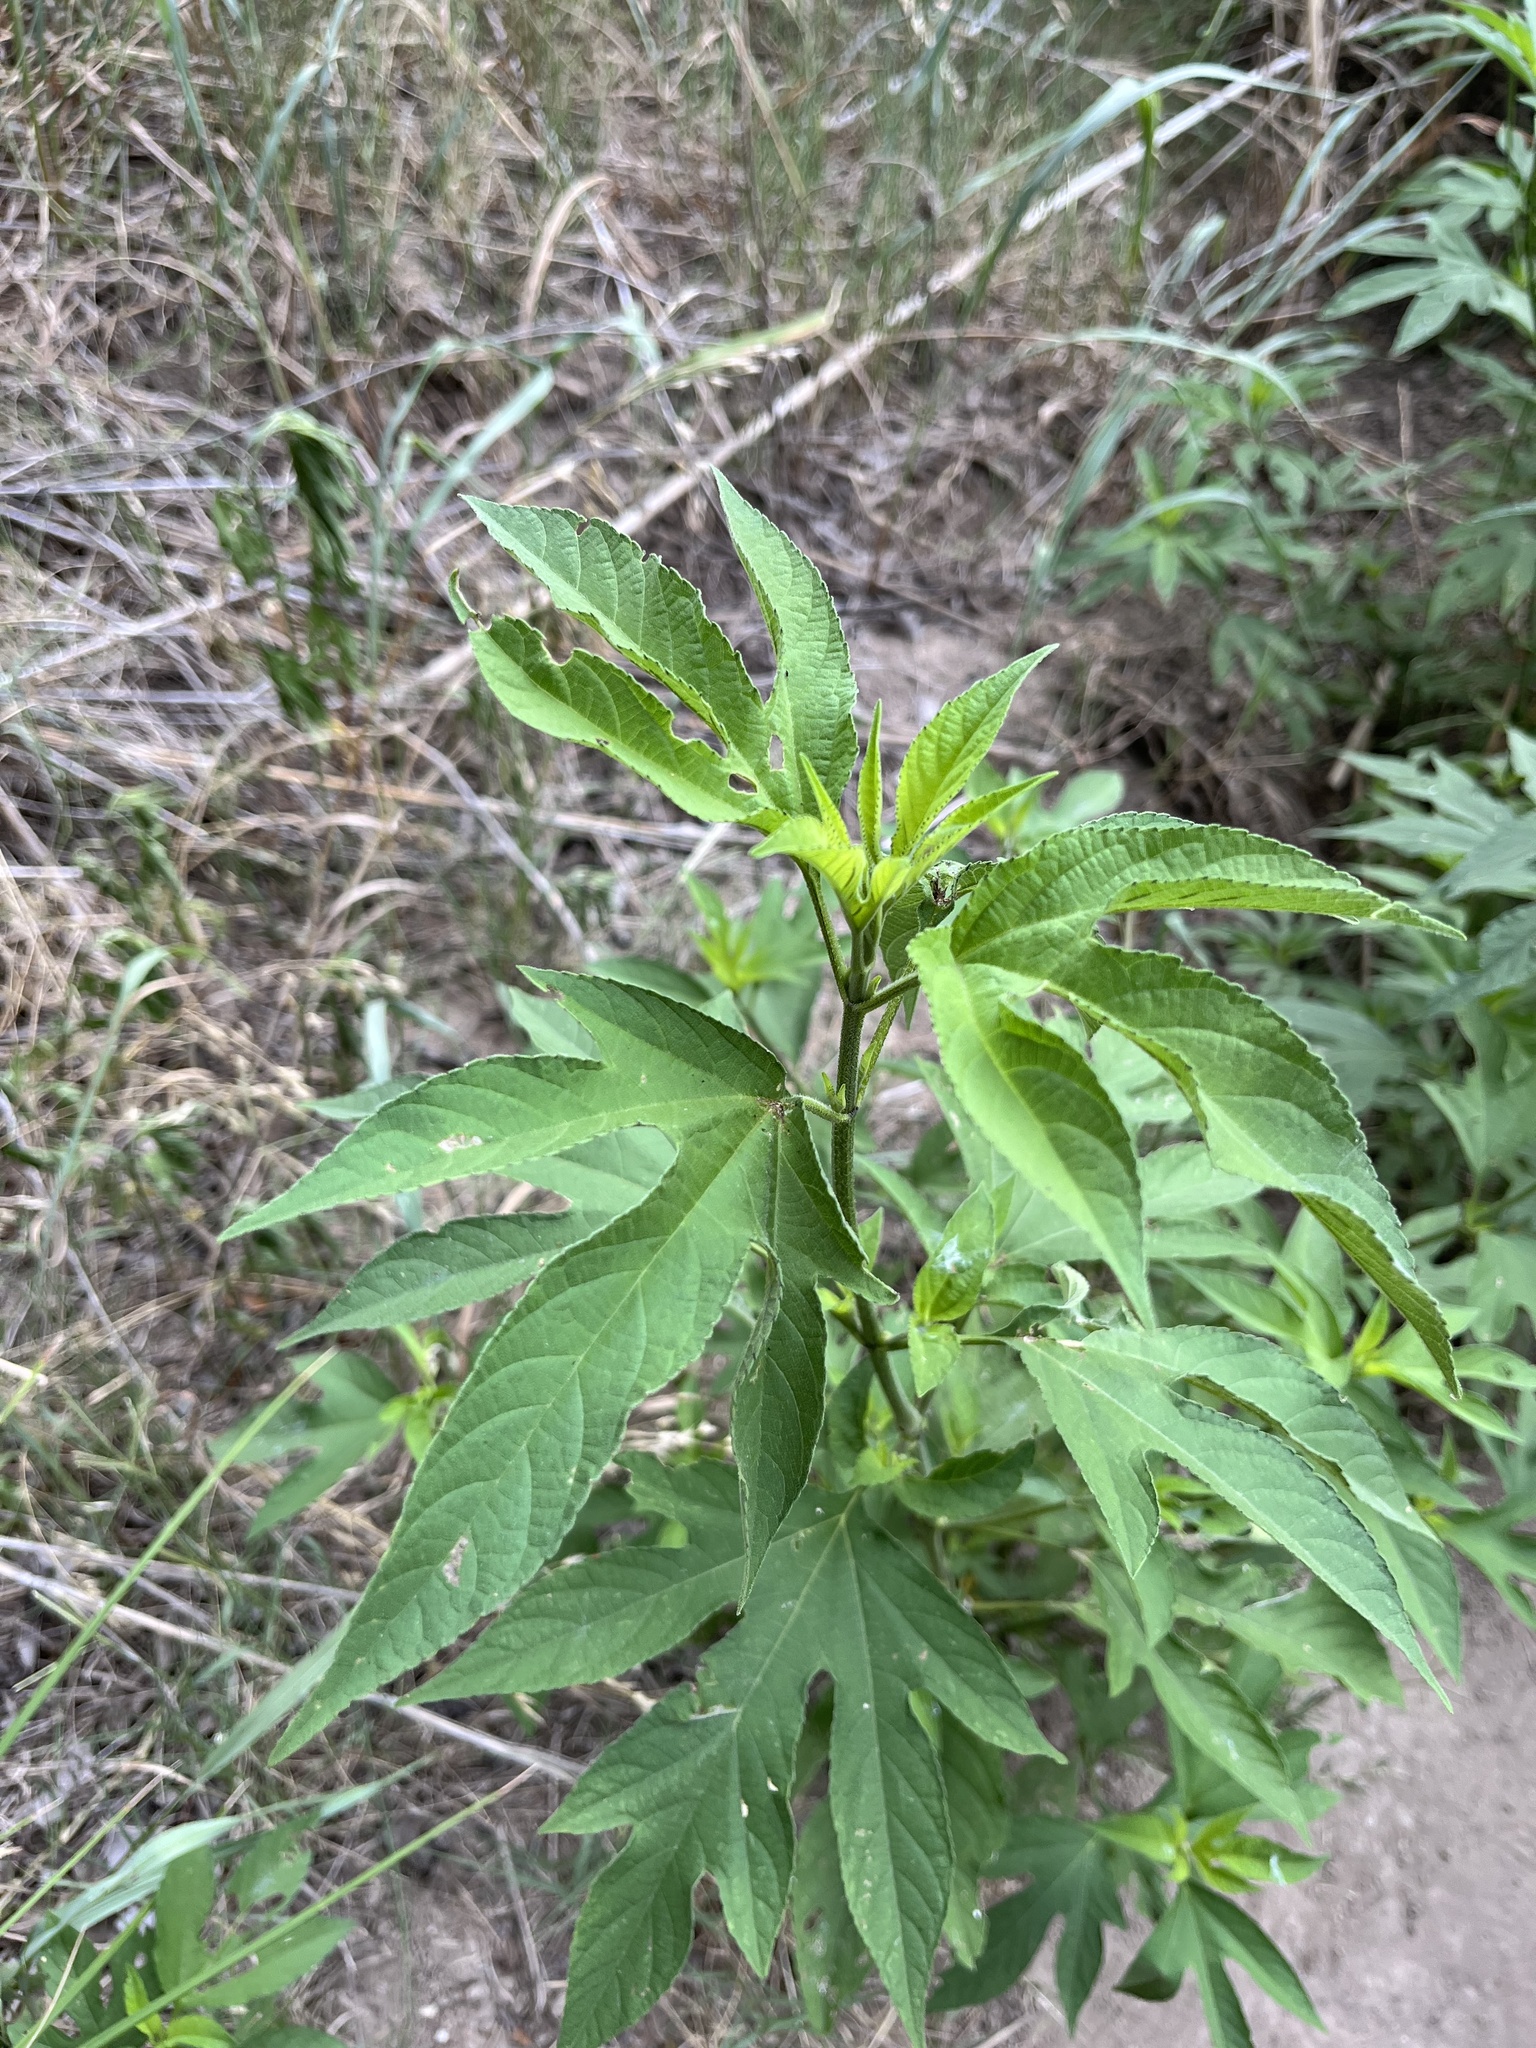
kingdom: Plantae
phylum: Tracheophyta
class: Magnoliopsida
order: Asterales
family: Asteraceae
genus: Ambrosia
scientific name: Ambrosia trifida
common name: Giant ragweed
